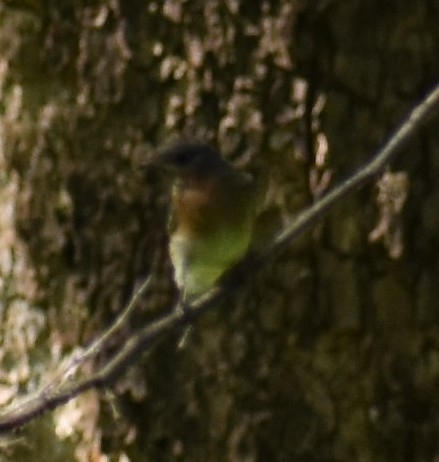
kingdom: Animalia
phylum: Chordata
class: Aves
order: Passeriformes
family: Turdidae
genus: Sialia
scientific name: Sialia sialis
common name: Eastern bluebird
